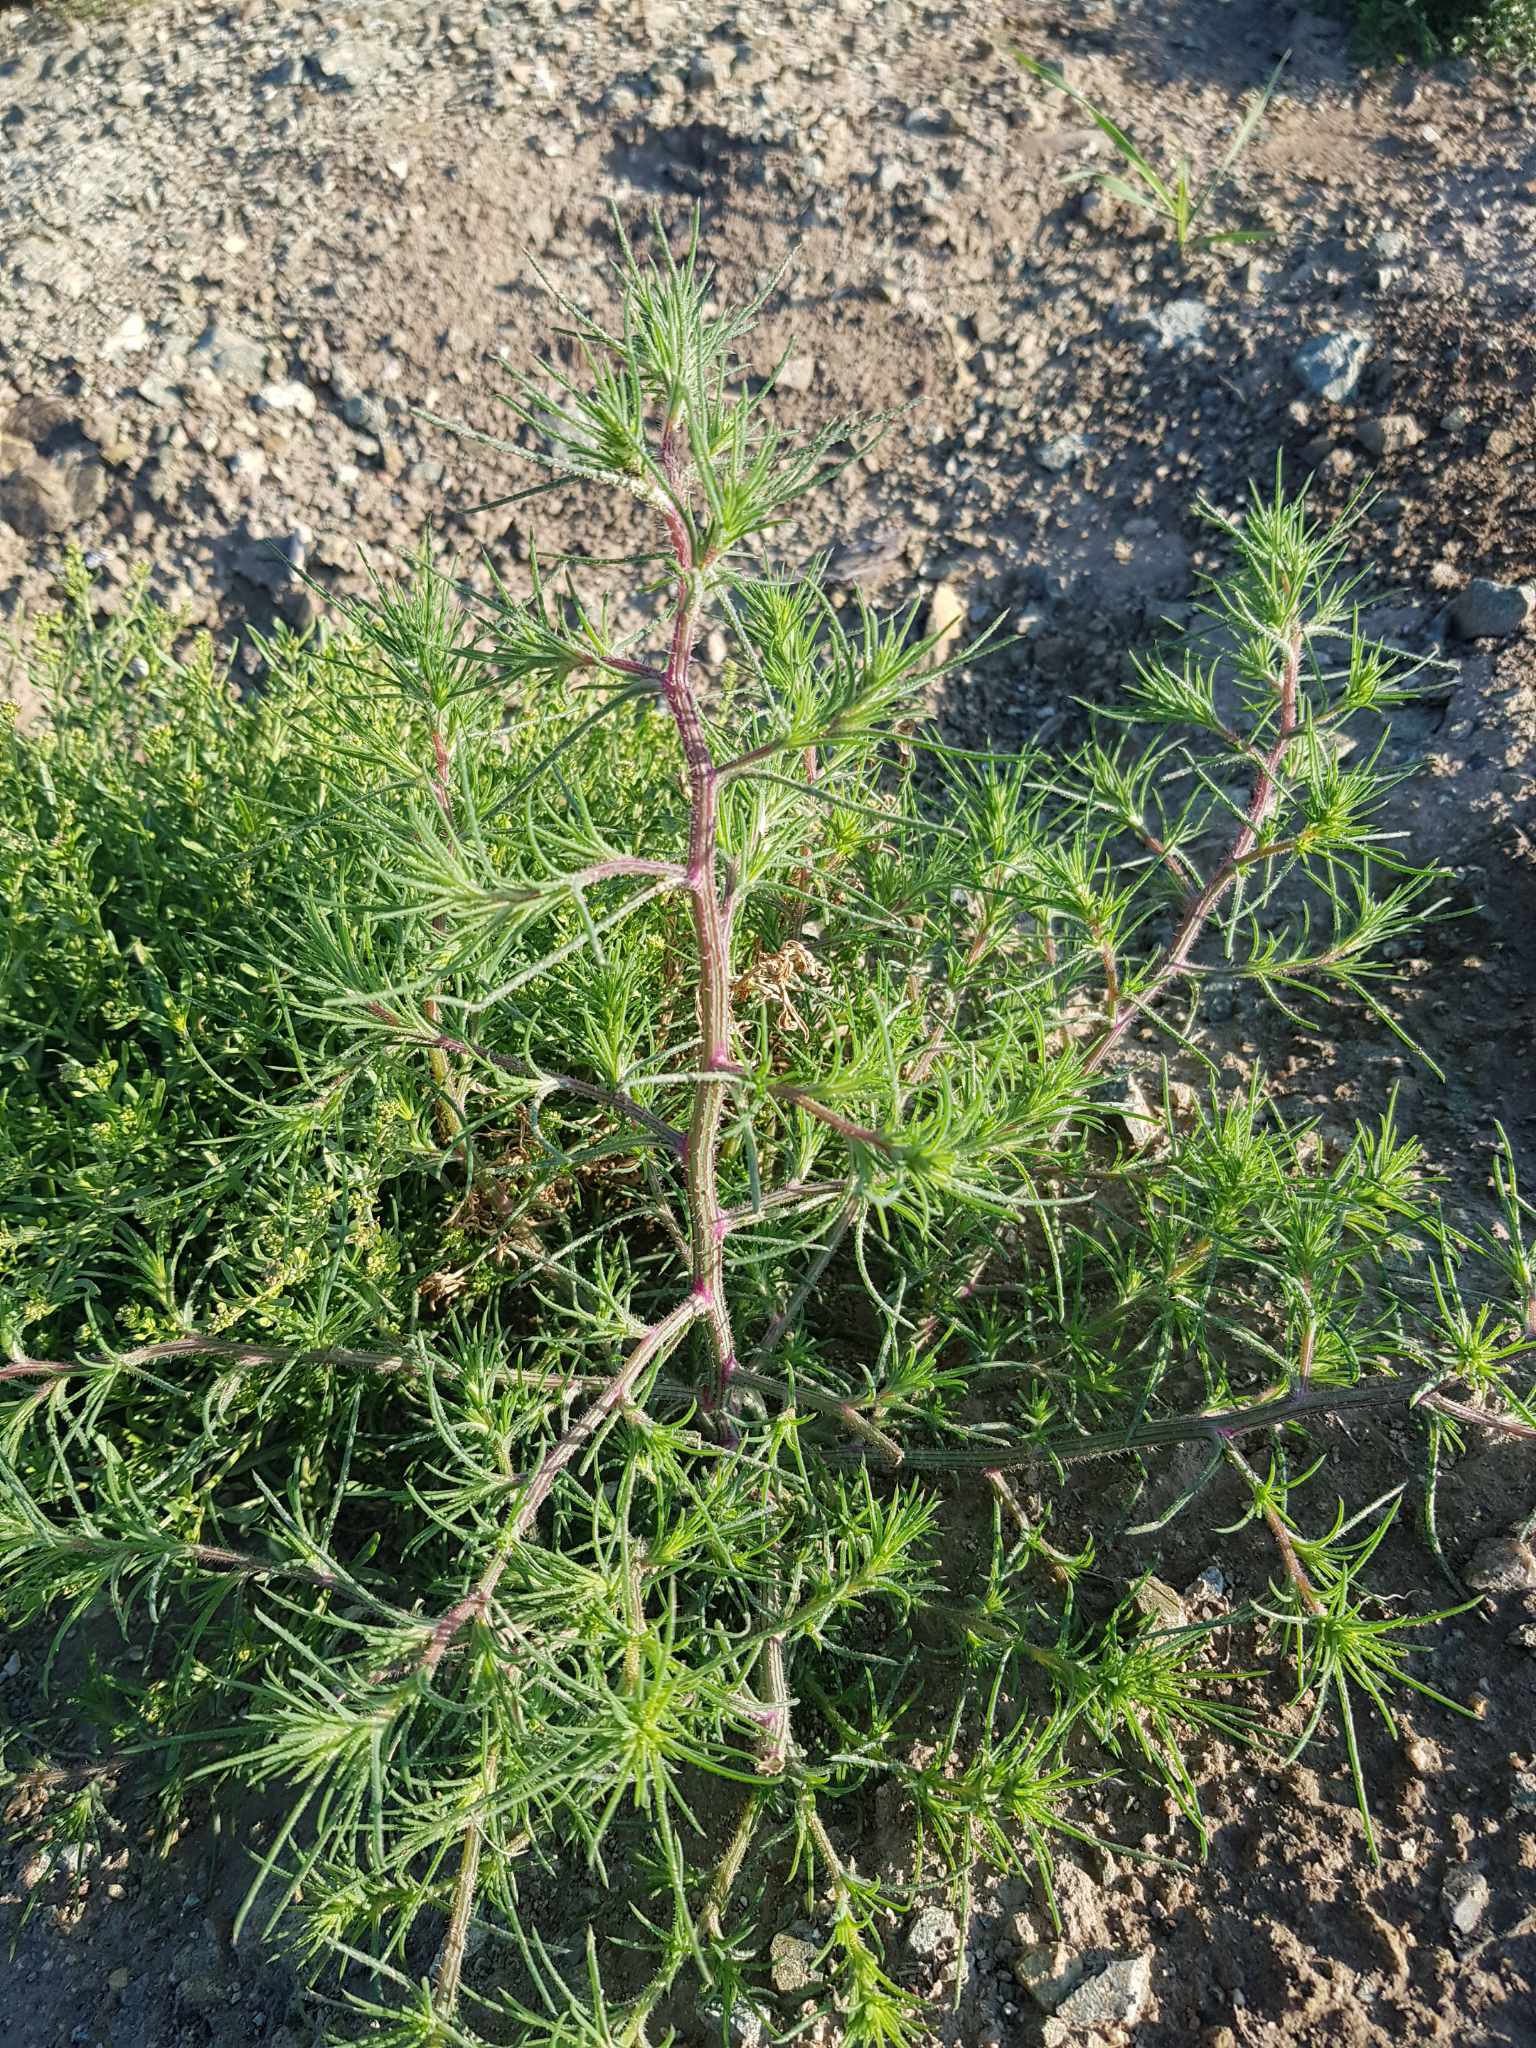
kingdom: Plantae
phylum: Tracheophyta
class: Magnoliopsida
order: Caryophyllales
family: Amaranthaceae
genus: Salsola
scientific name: Salsola collina
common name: Tumbleweed
